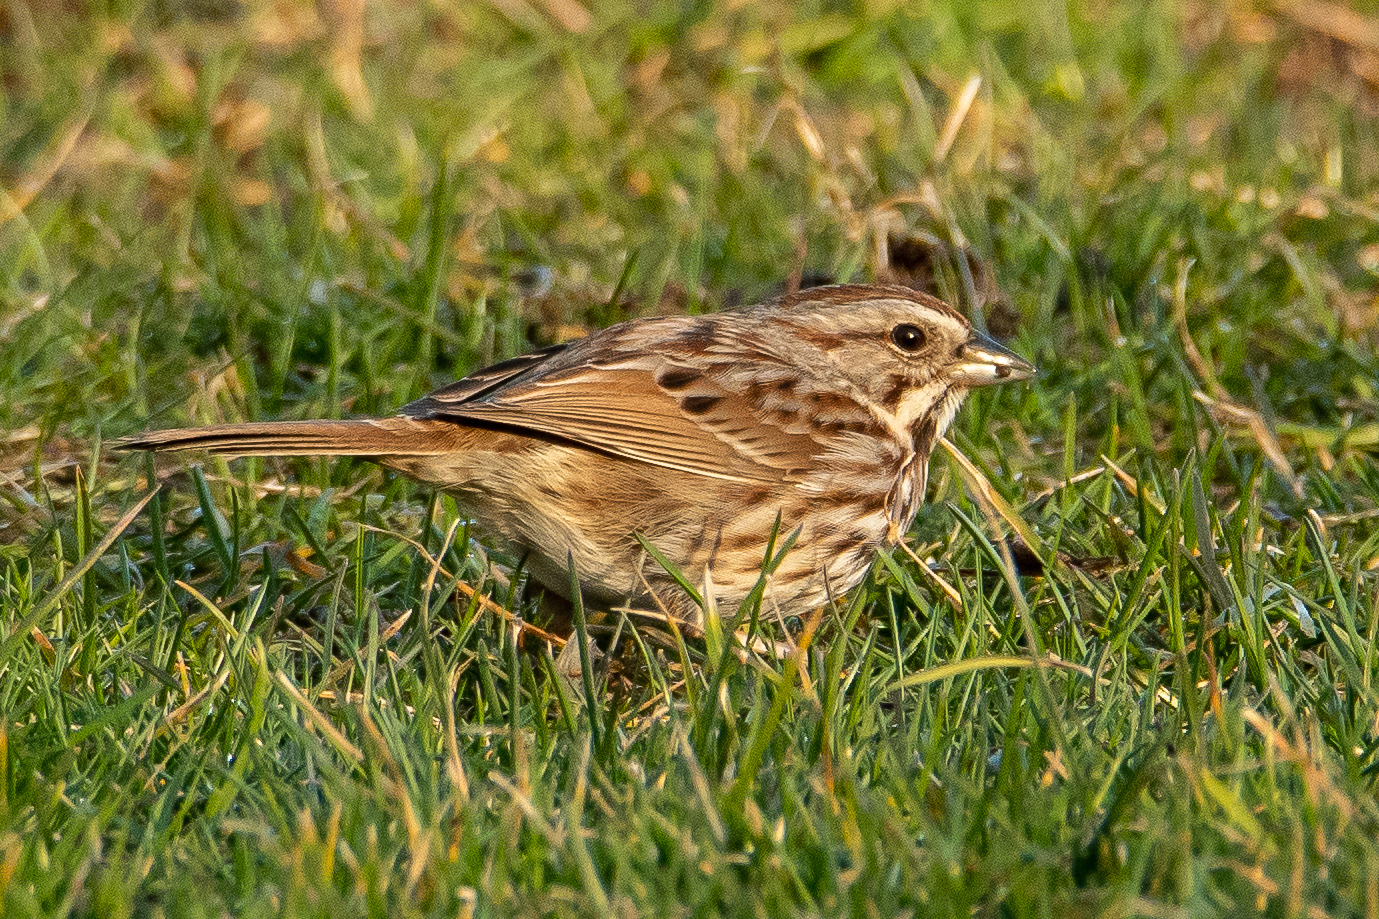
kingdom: Animalia
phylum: Chordata
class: Aves
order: Passeriformes
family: Passerellidae
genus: Melospiza
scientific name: Melospiza melodia
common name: Song sparrow
